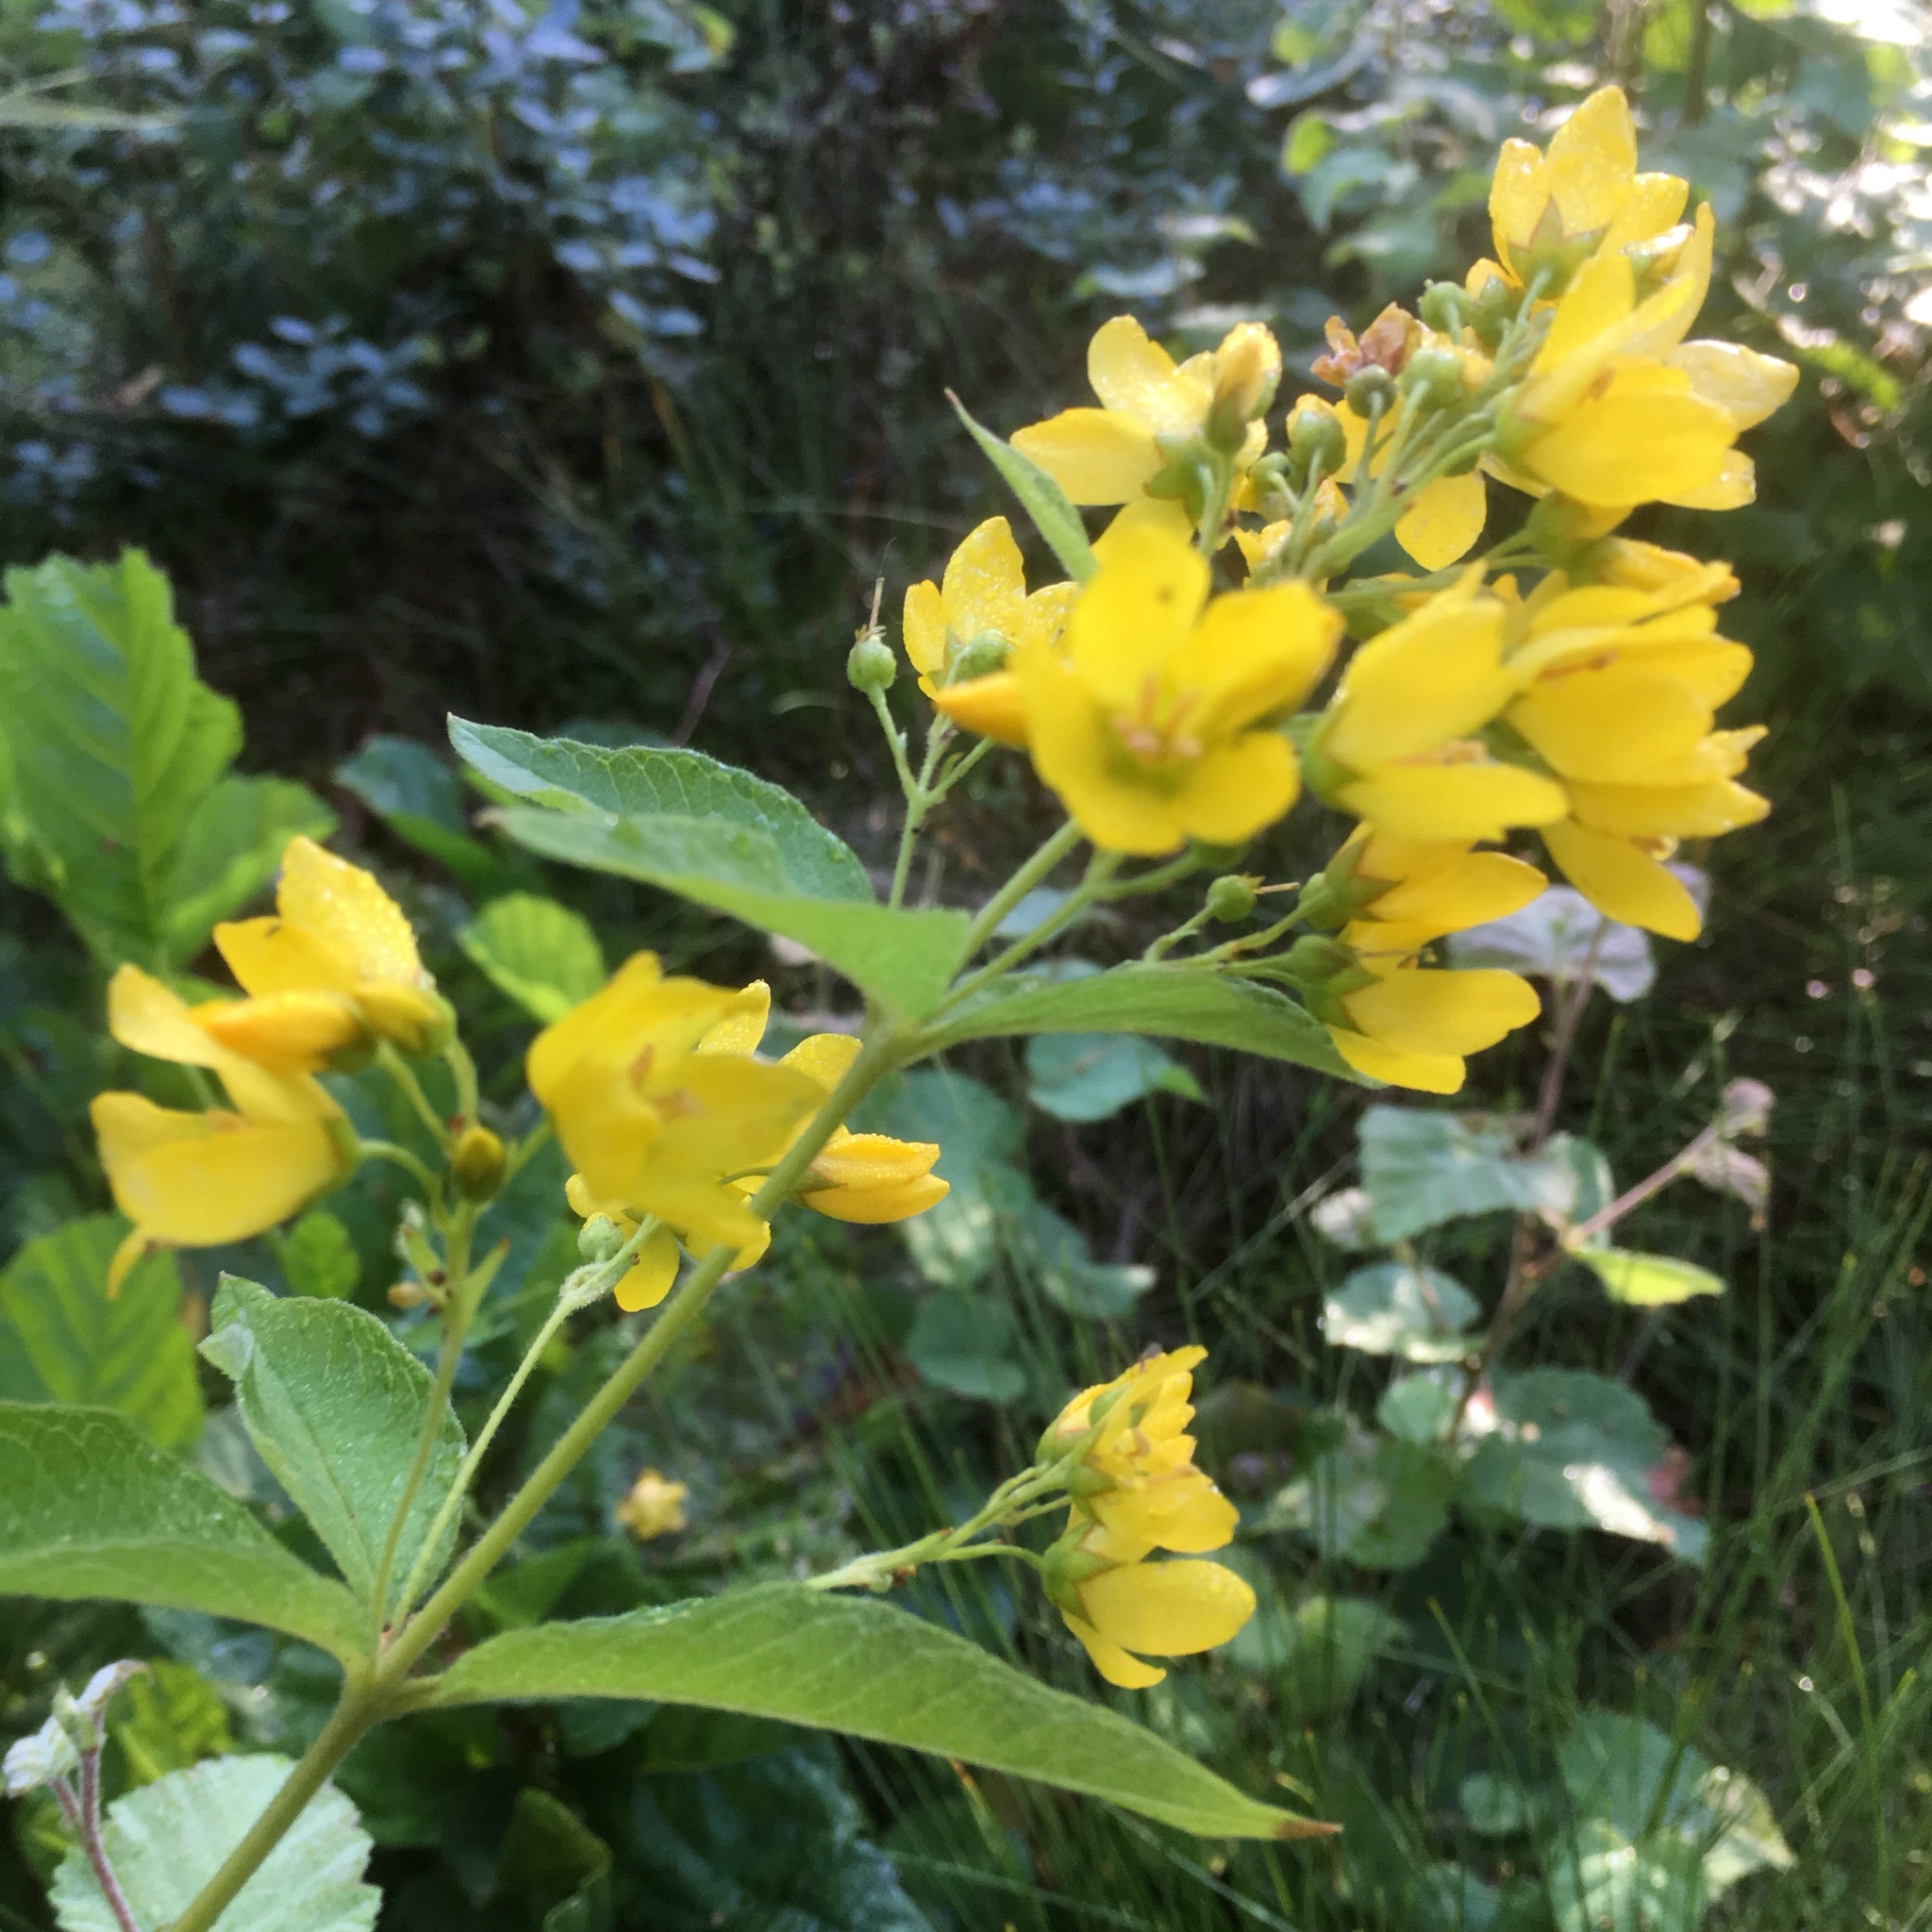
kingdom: Plantae
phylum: Tracheophyta
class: Magnoliopsida
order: Ericales
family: Primulaceae
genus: Lysimachia
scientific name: Lysimachia vulgaris
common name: Yellow loosestrife
